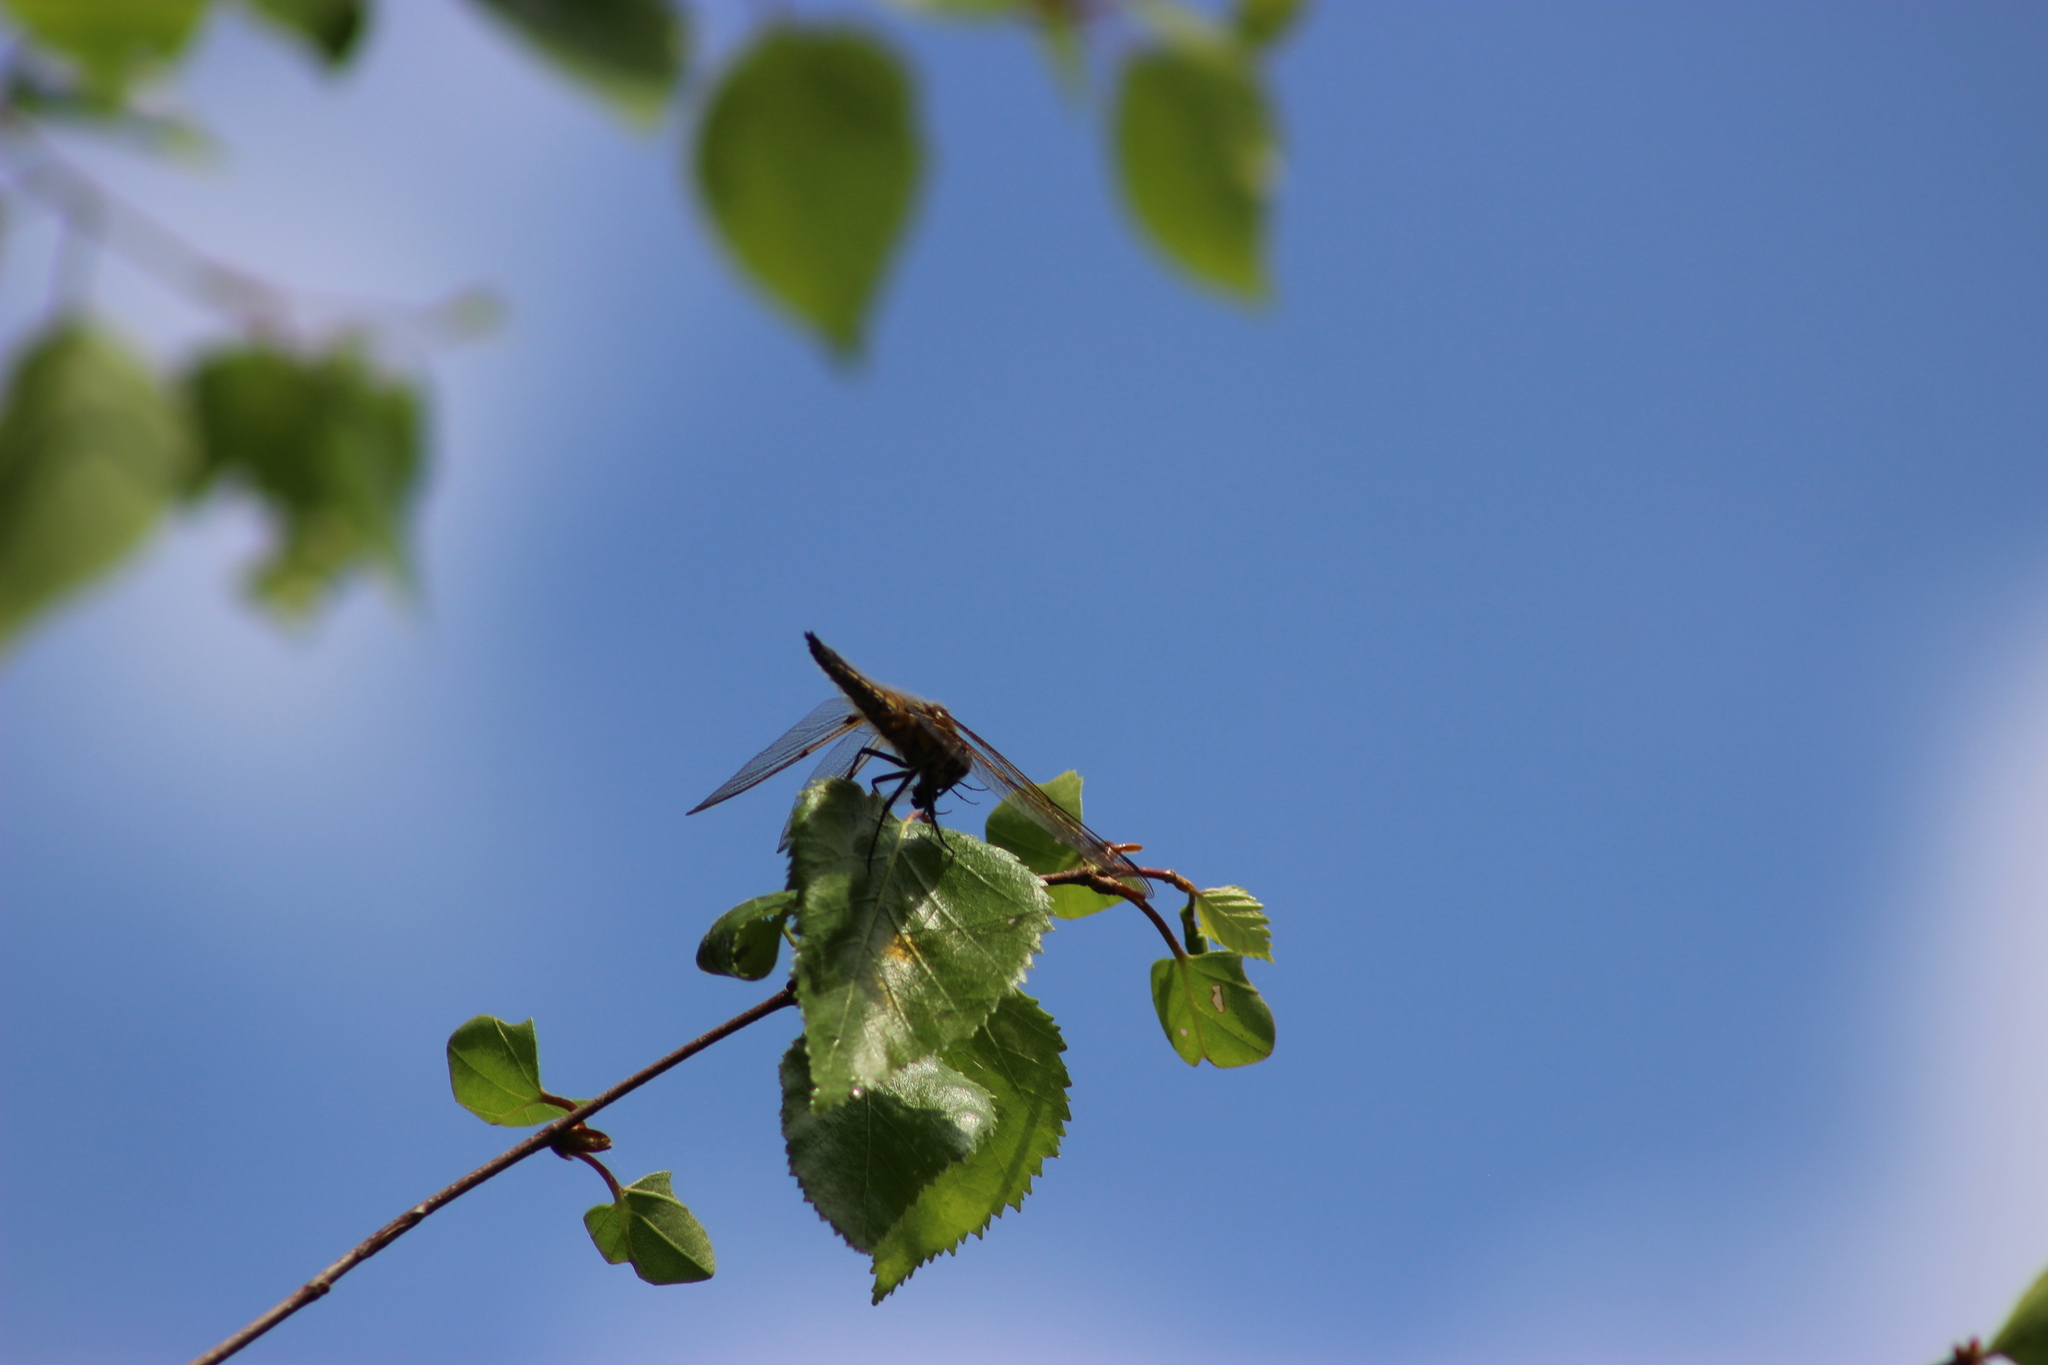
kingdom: Animalia
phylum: Arthropoda
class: Insecta
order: Odonata
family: Libellulidae
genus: Libellula
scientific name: Libellula quadrimaculata
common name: Four-spotted chaser
